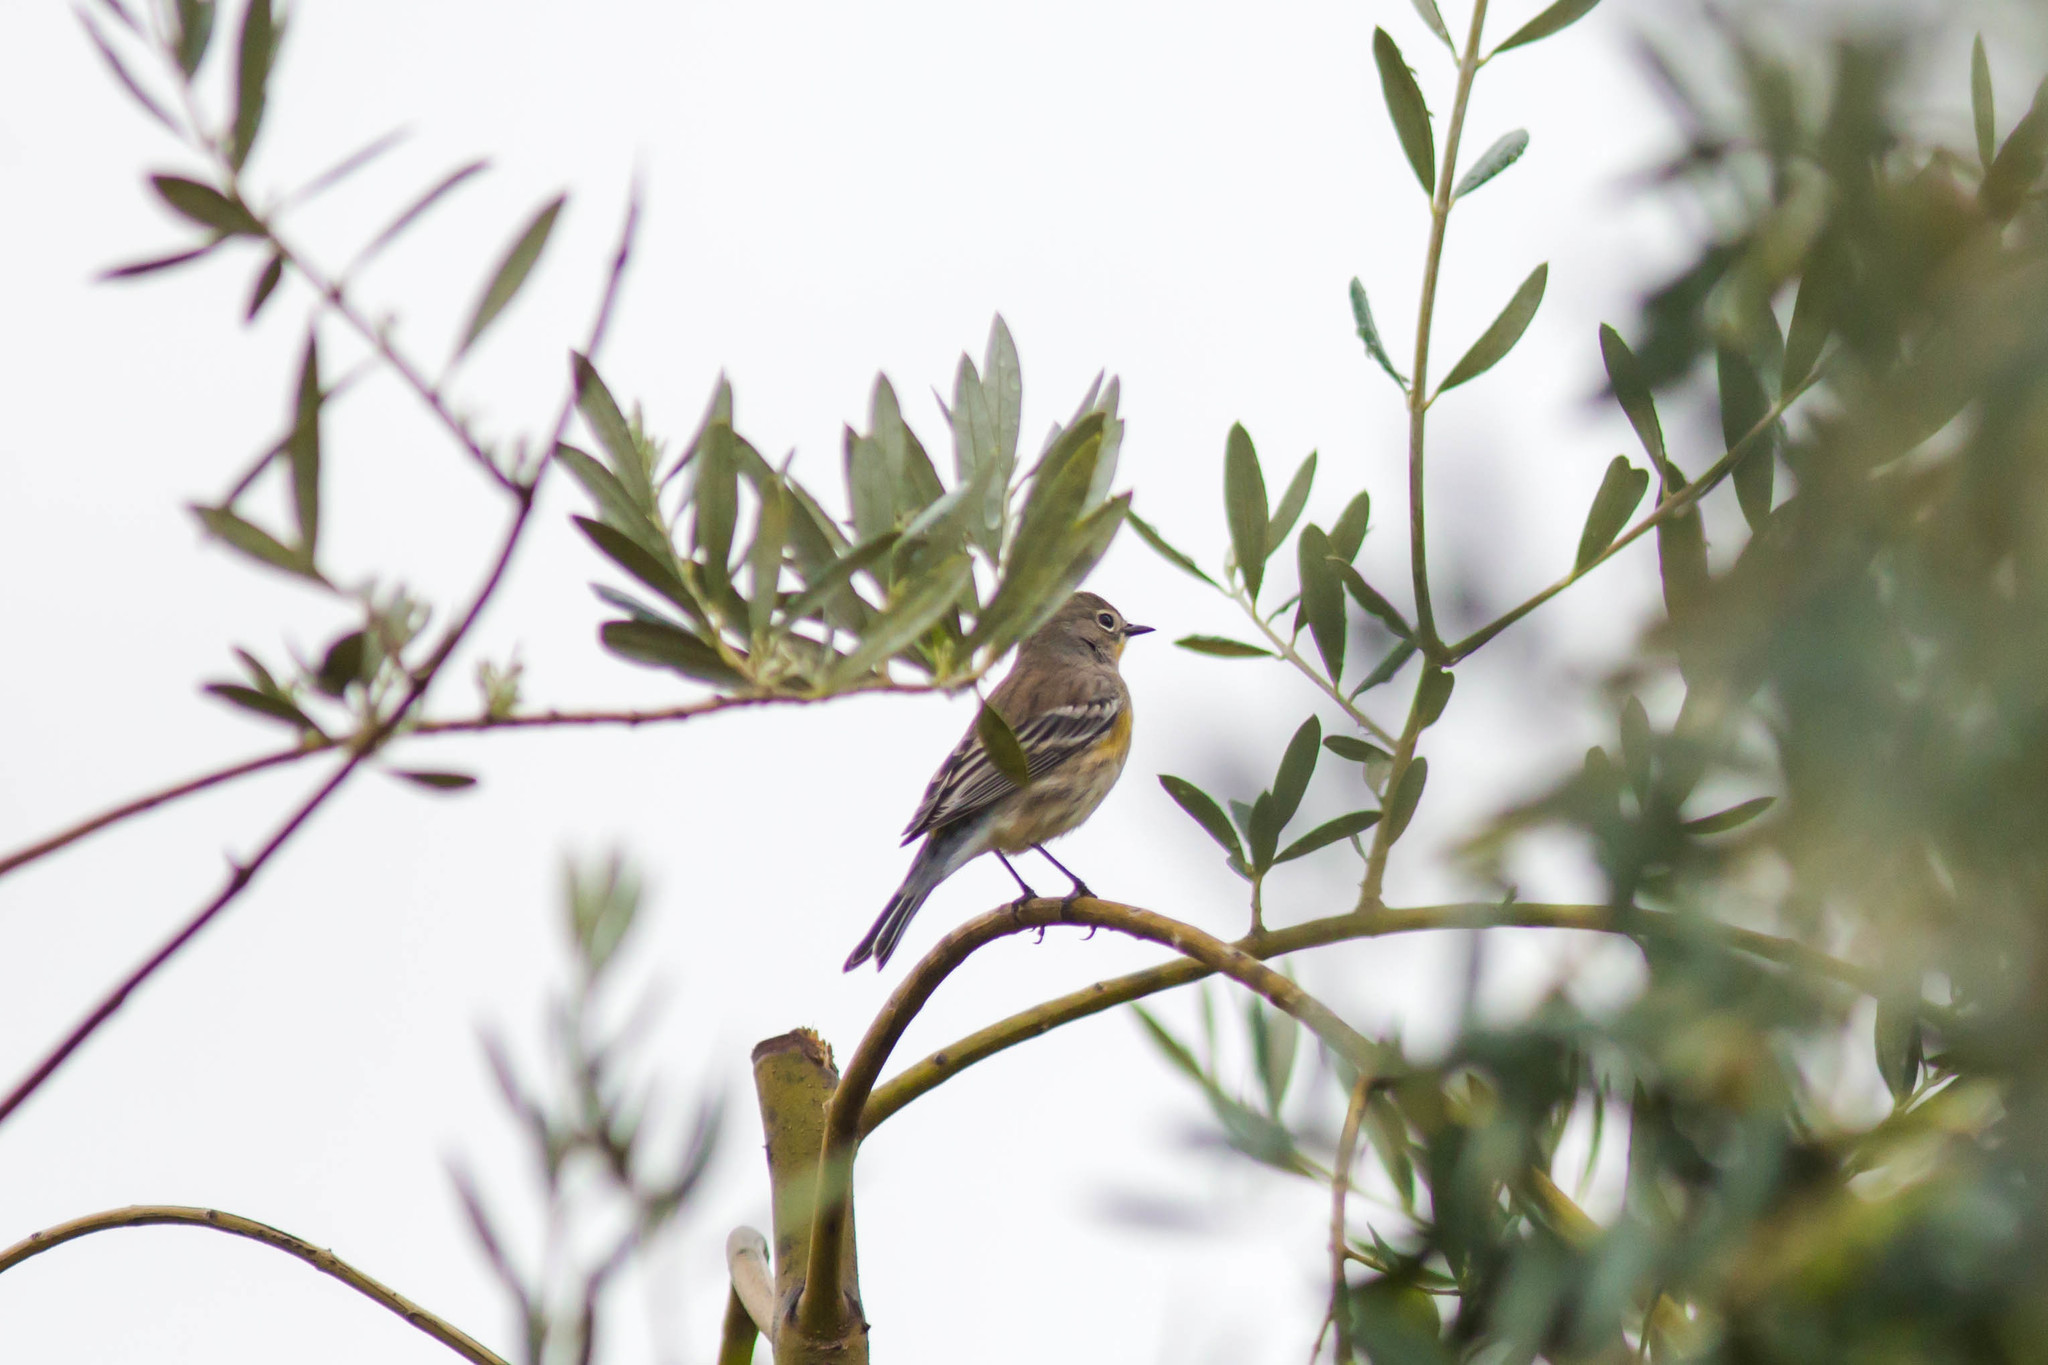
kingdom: Animalia
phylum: Chordata
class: Aves
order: Passeriformes
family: Parulidae
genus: Setophaga
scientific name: Setophaga coronata
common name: Myrtle warbler
